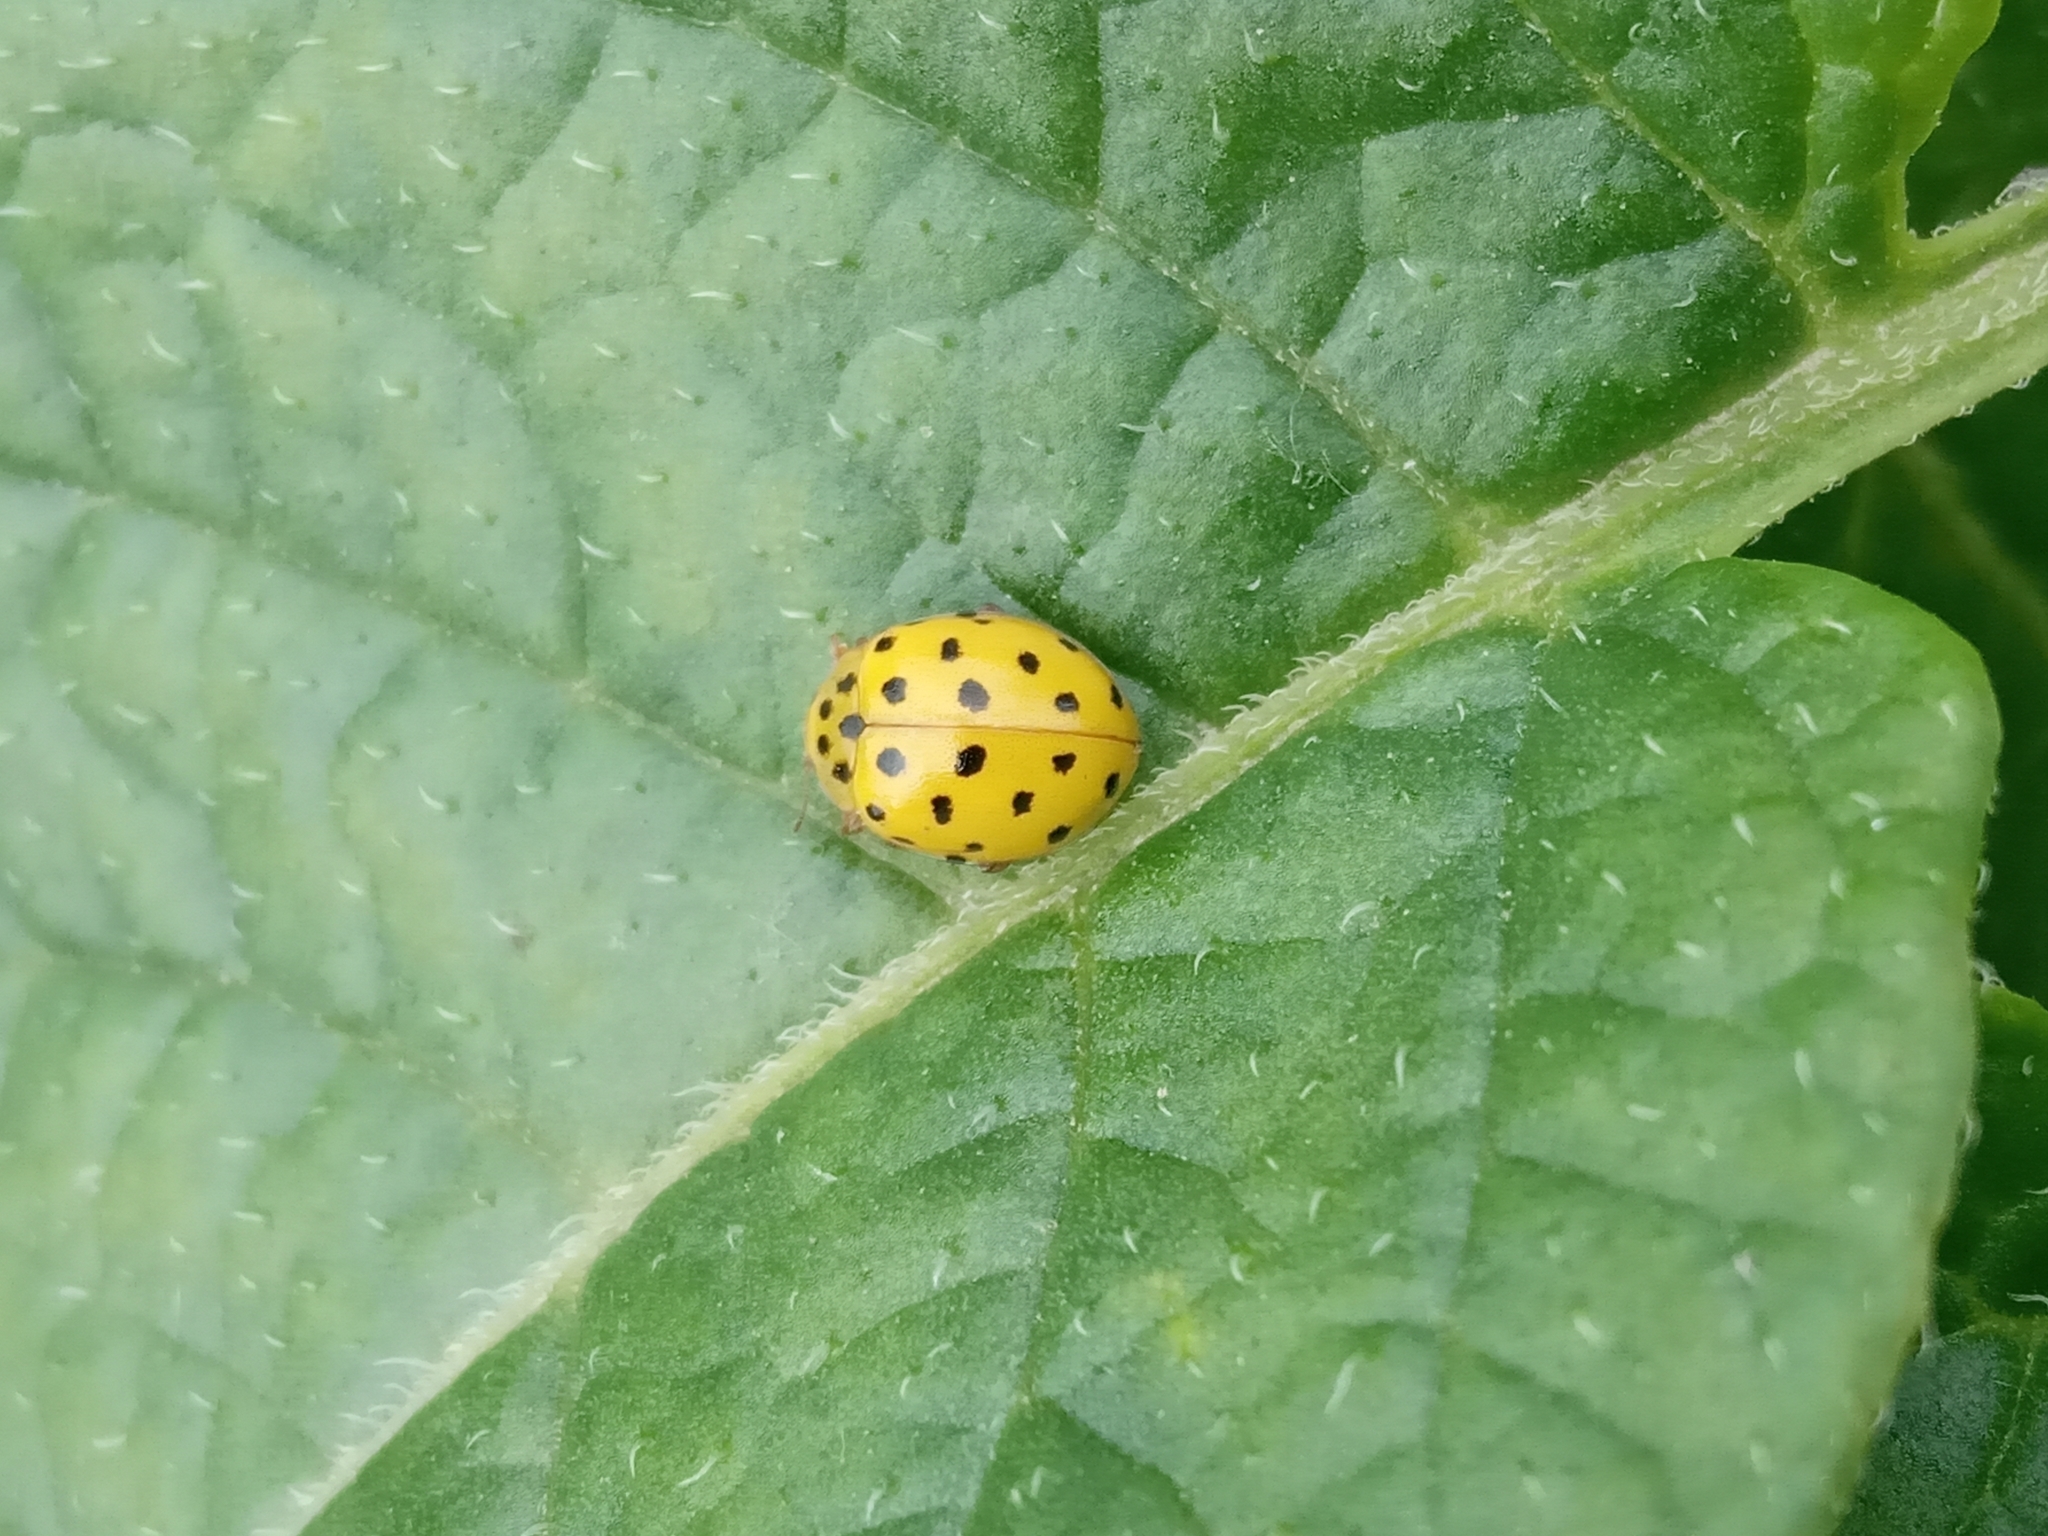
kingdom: Animalia
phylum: Arthropoda
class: Insecta
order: Coleoptera
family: Coccinellidae
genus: Psyllobora
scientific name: Psyllobora vigintiduopunctata
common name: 22-spot ladybird
